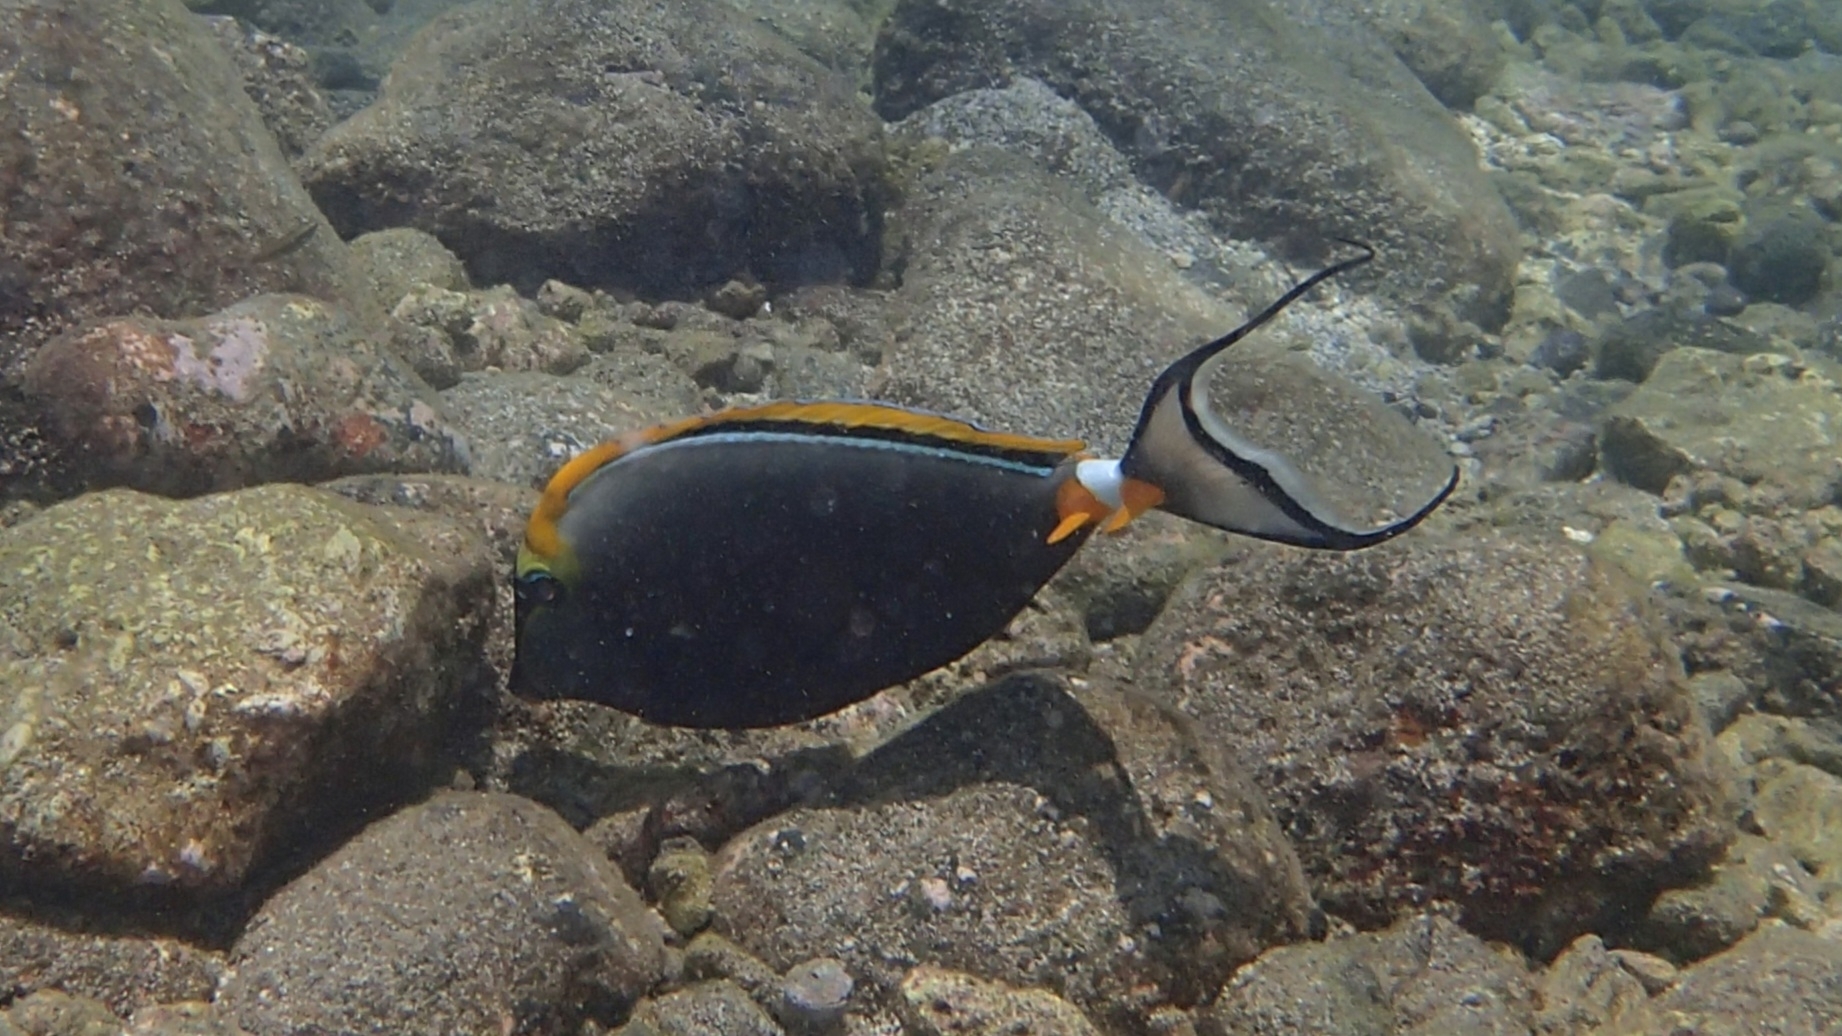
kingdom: Animalia
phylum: Chordata
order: Perciformes
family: Acanthuridae
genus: Naso
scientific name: Naso elegans
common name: Orangespine unicornfish
